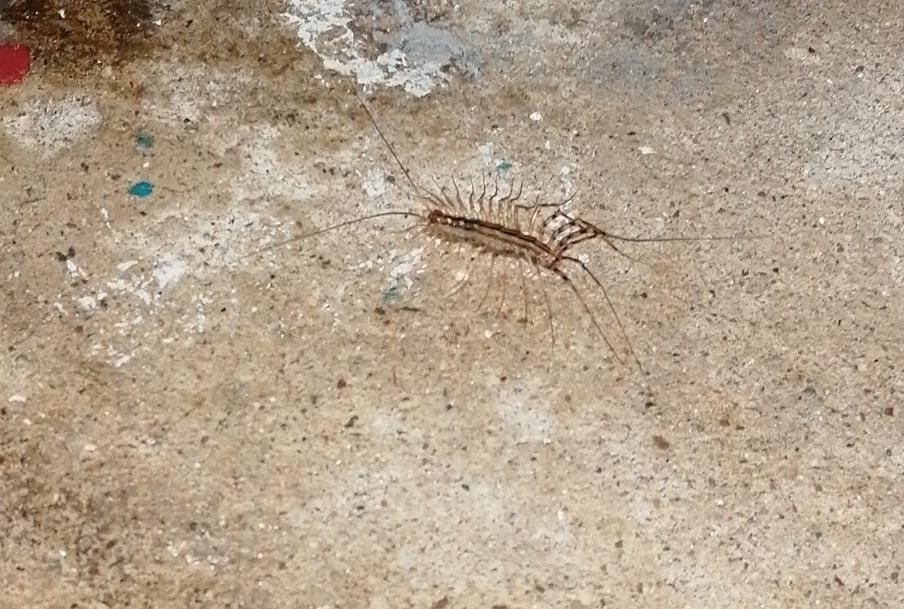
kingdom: Animalia
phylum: Arthropoda
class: Chilopoda
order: Scutigeromorpha
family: Scutigeridae
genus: Scutigera
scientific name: Scutigera coleoptrata
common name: House centipede
